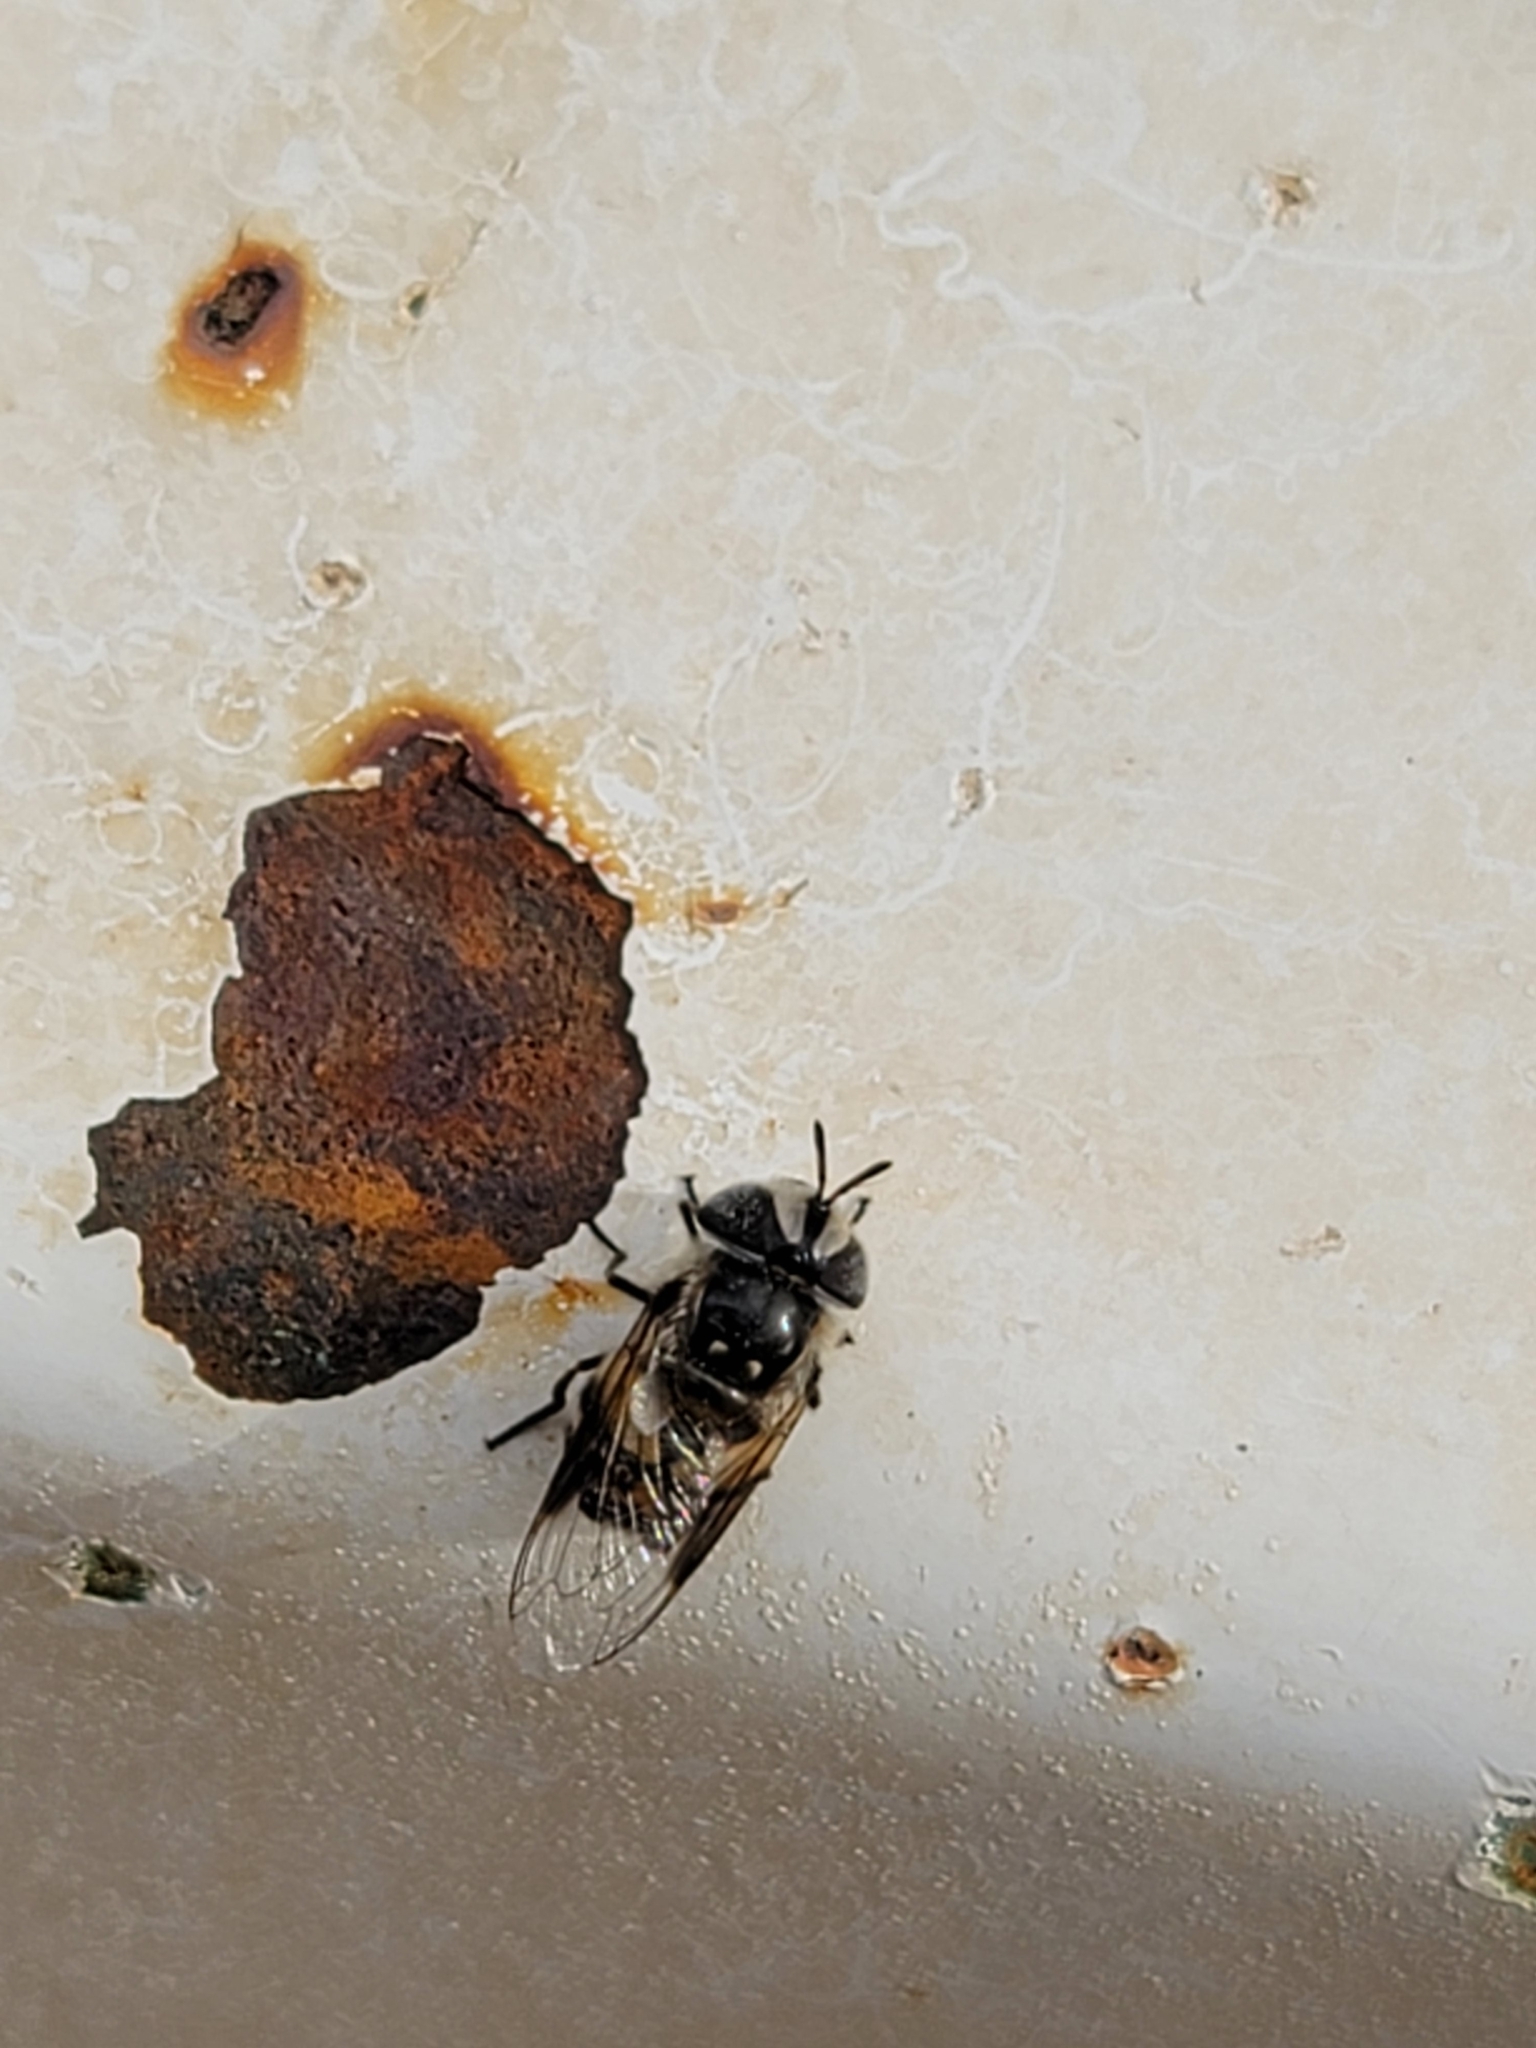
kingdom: Animalia
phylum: Arthropoda
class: Insecta
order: Diptera
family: Syrphidae
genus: Copestylum
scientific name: Copestylum fornax
